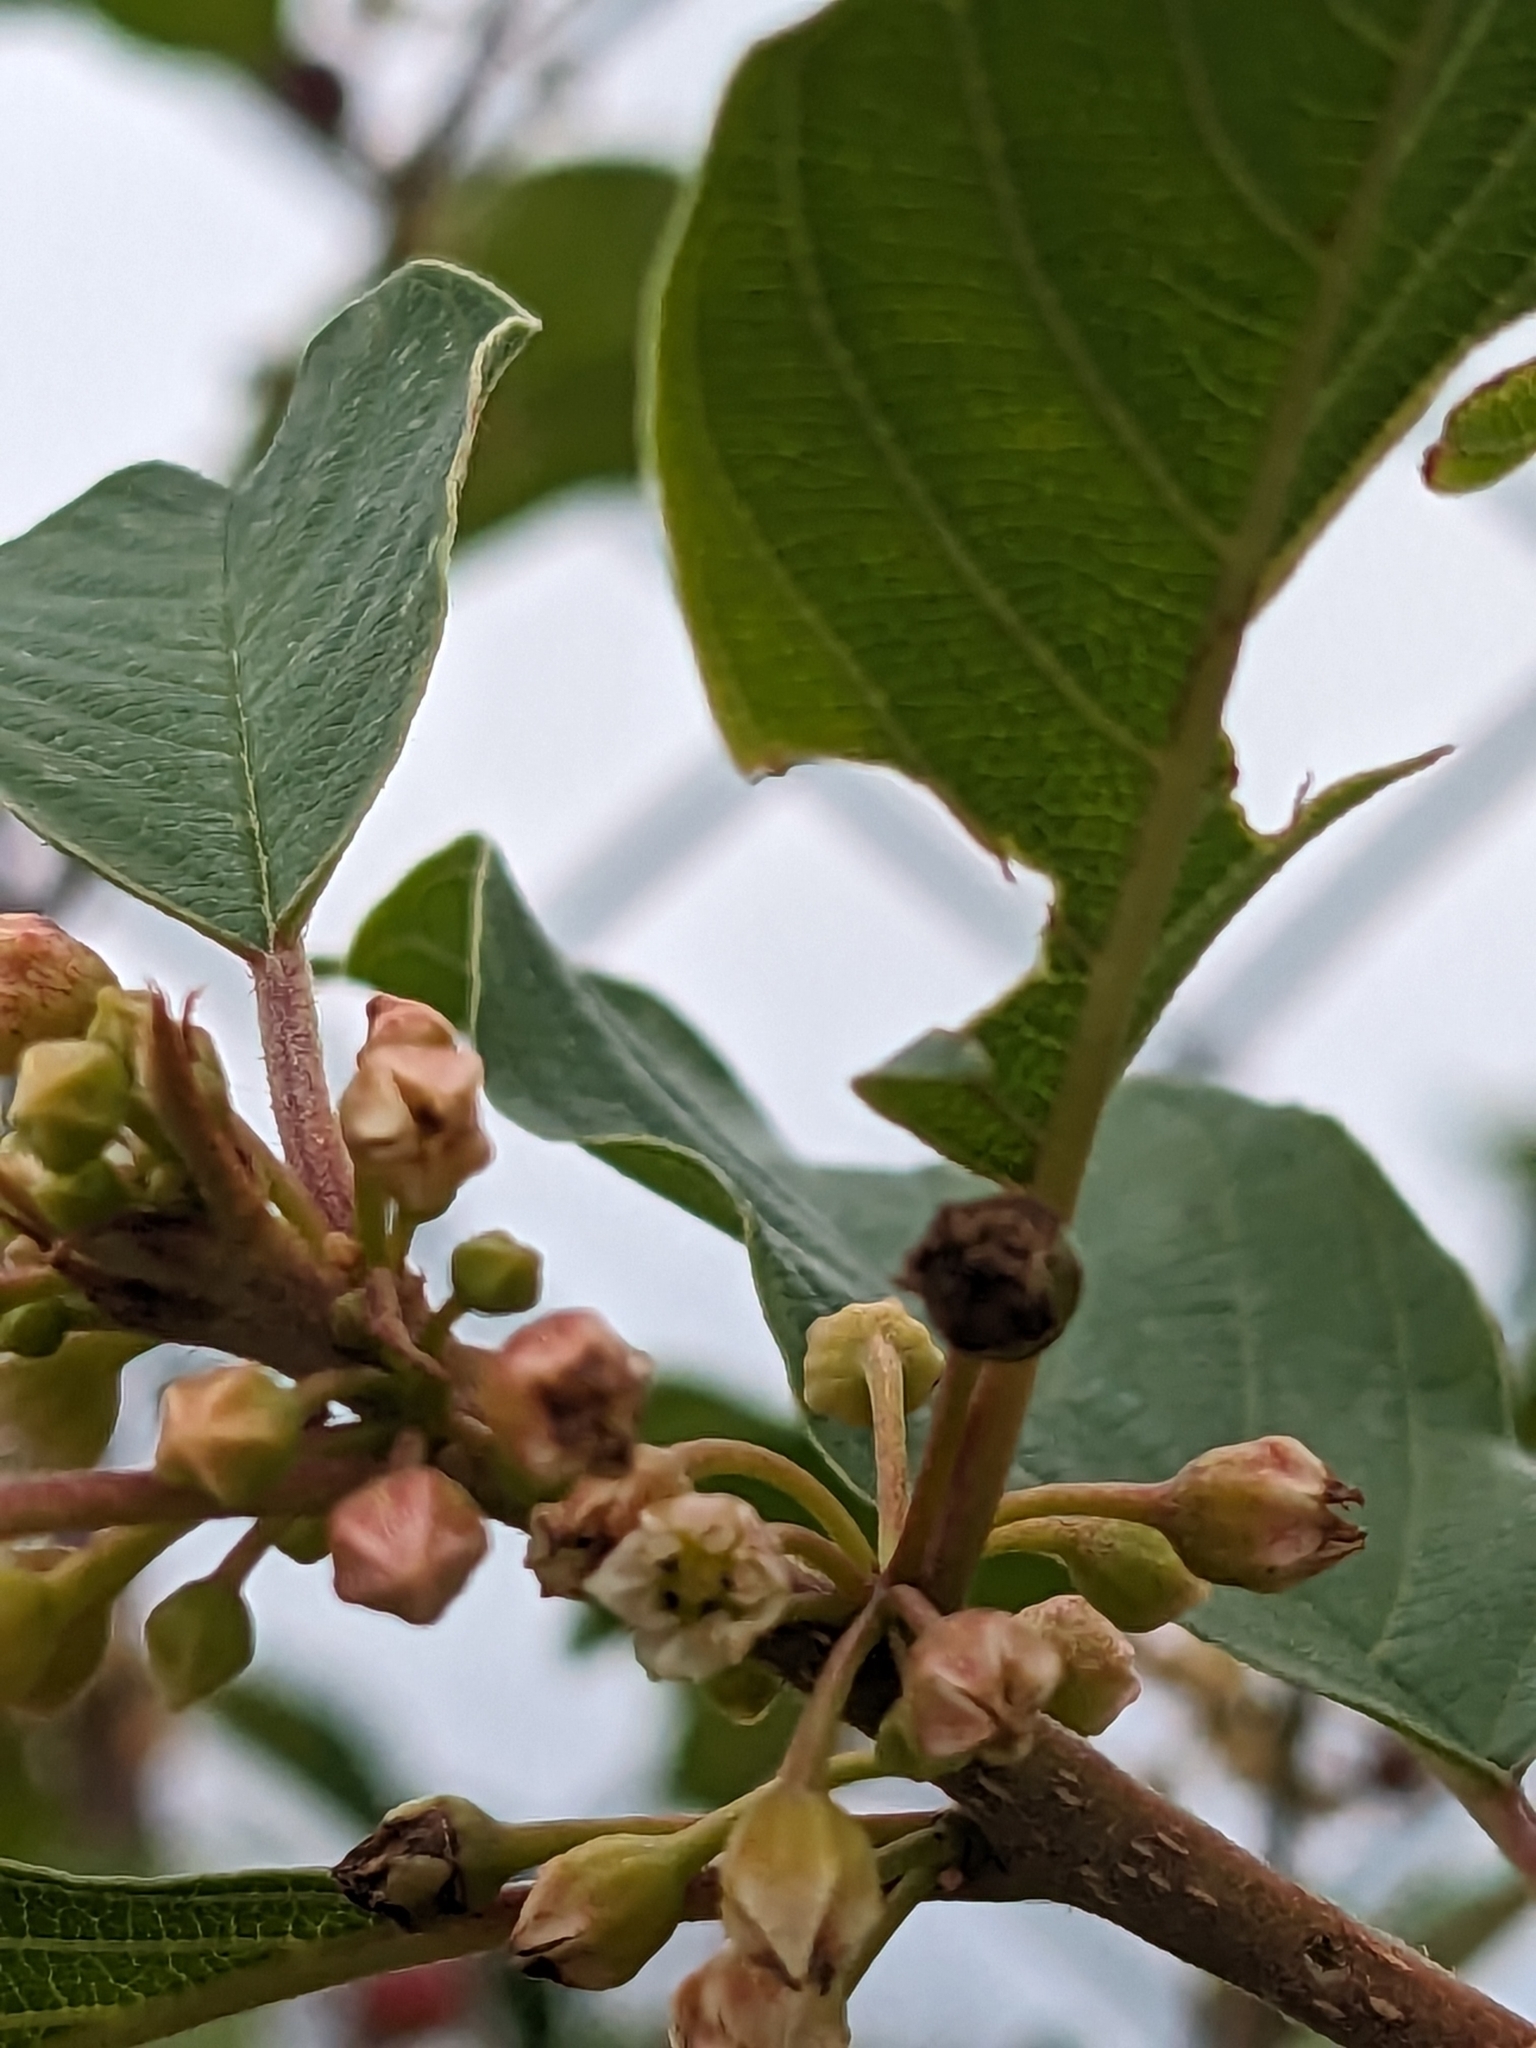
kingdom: Plantae
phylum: Tracheophyta
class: Magnoliopsida
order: Rosales
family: Rhamnaceae
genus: Frangula
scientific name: Frangula alnus
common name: Alder buckthorn
